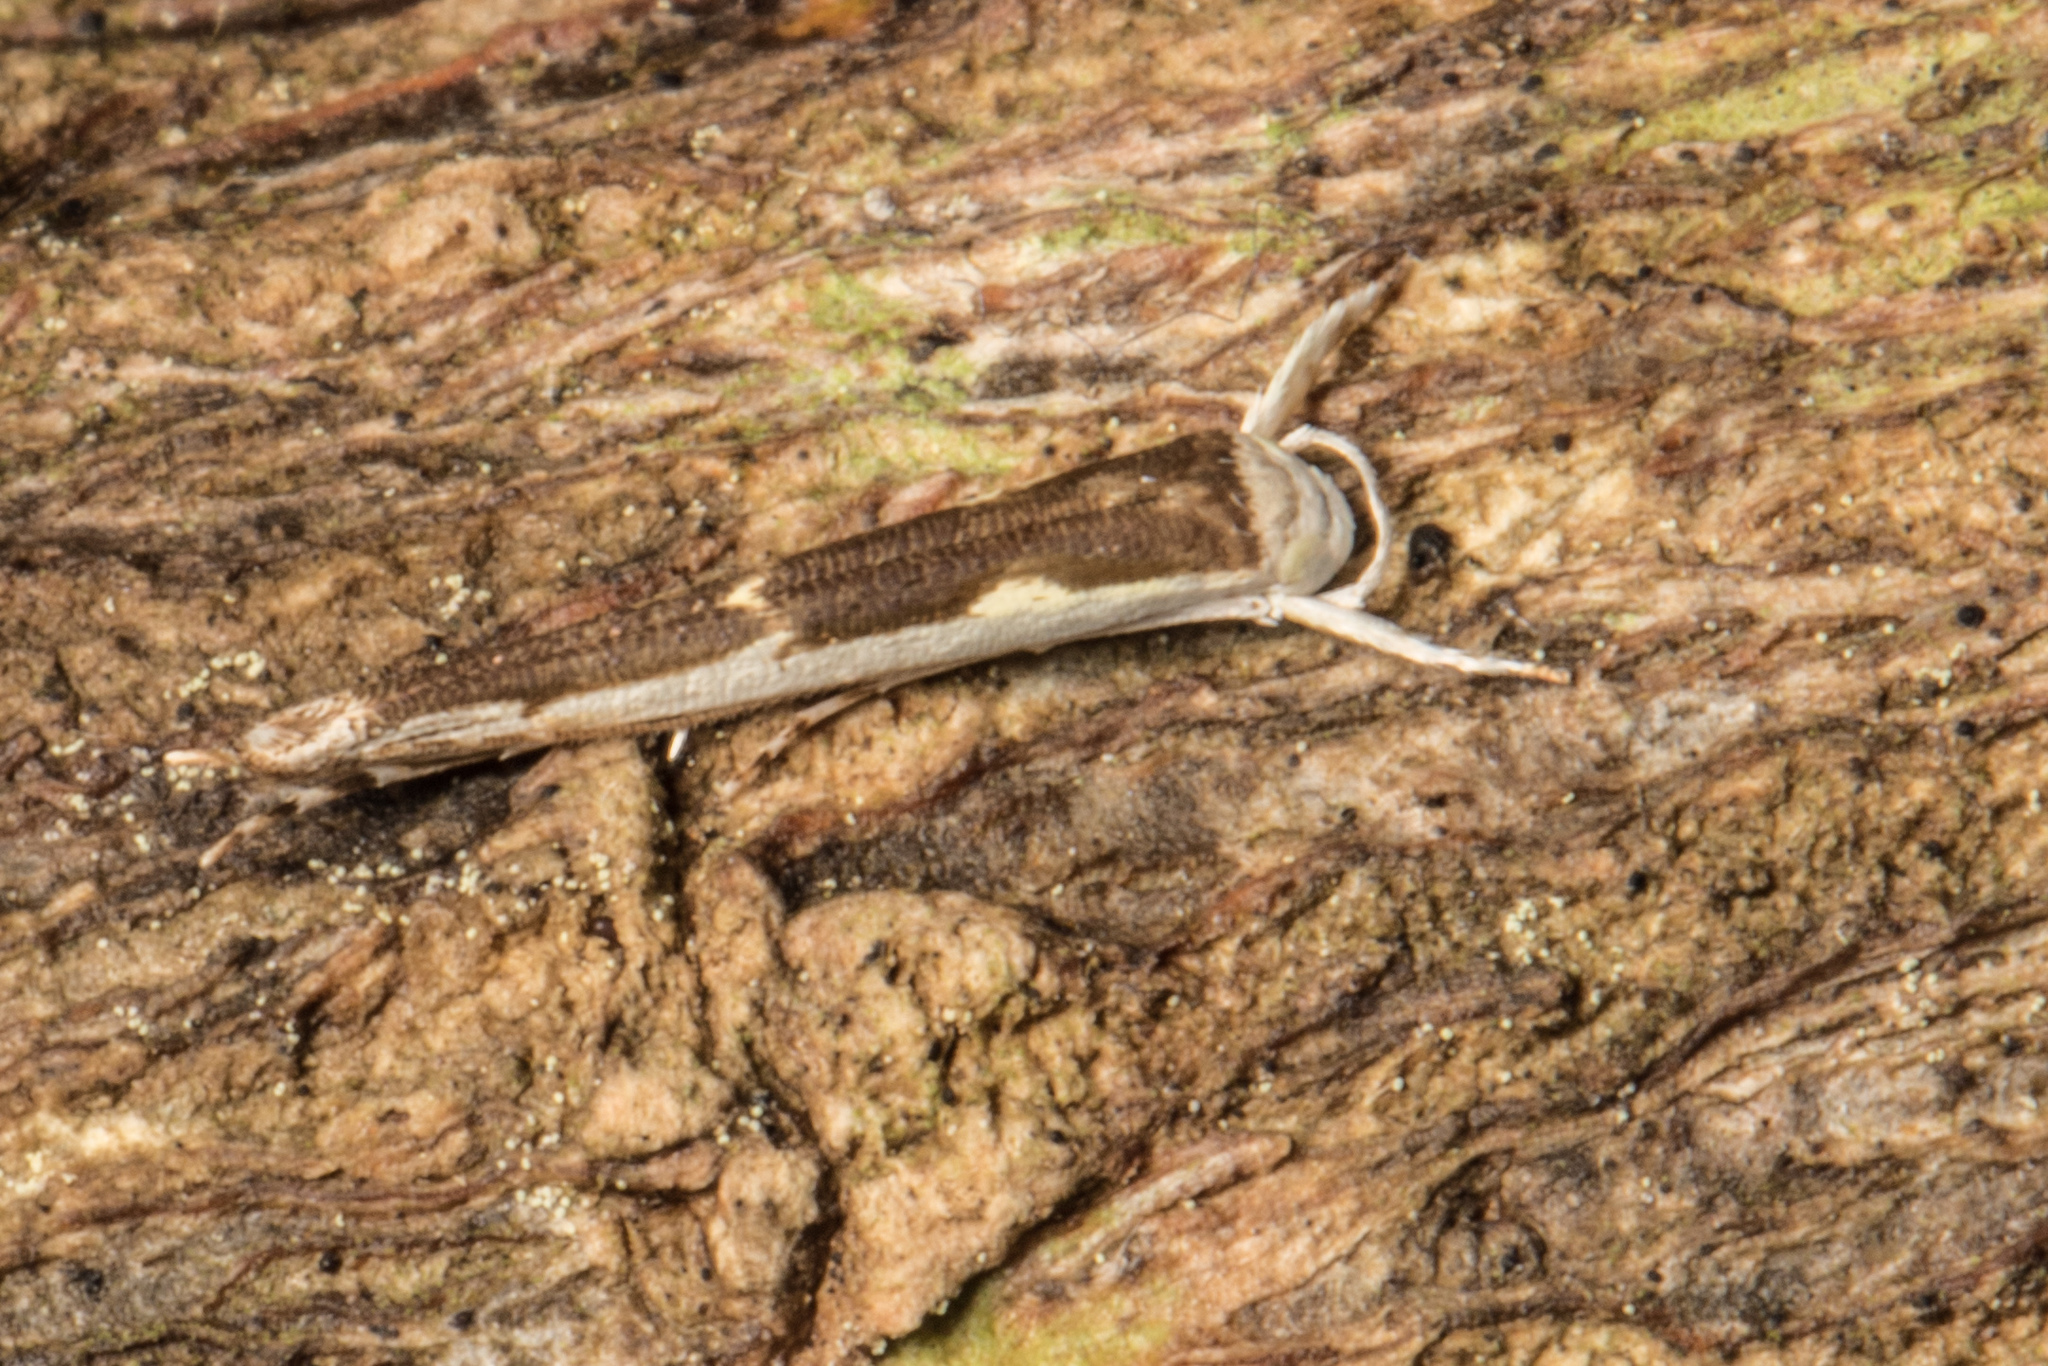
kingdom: Animalia
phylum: Arthropoda
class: Insecta
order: Lepidoptera
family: Roeslerstammiidae
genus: Vanicela
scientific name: Vanicela disjunctella
